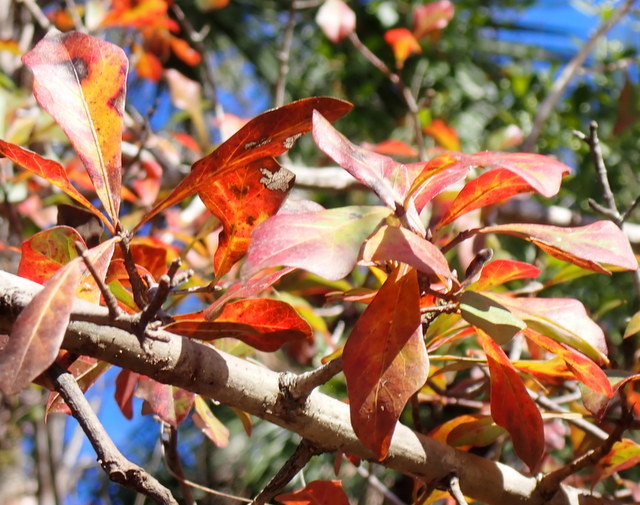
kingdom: Plantae
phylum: Tracheophyta
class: Magnoliopsida
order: Fagales
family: Fagaceae
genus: Quercus
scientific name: Quercus nigra
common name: Water oak
